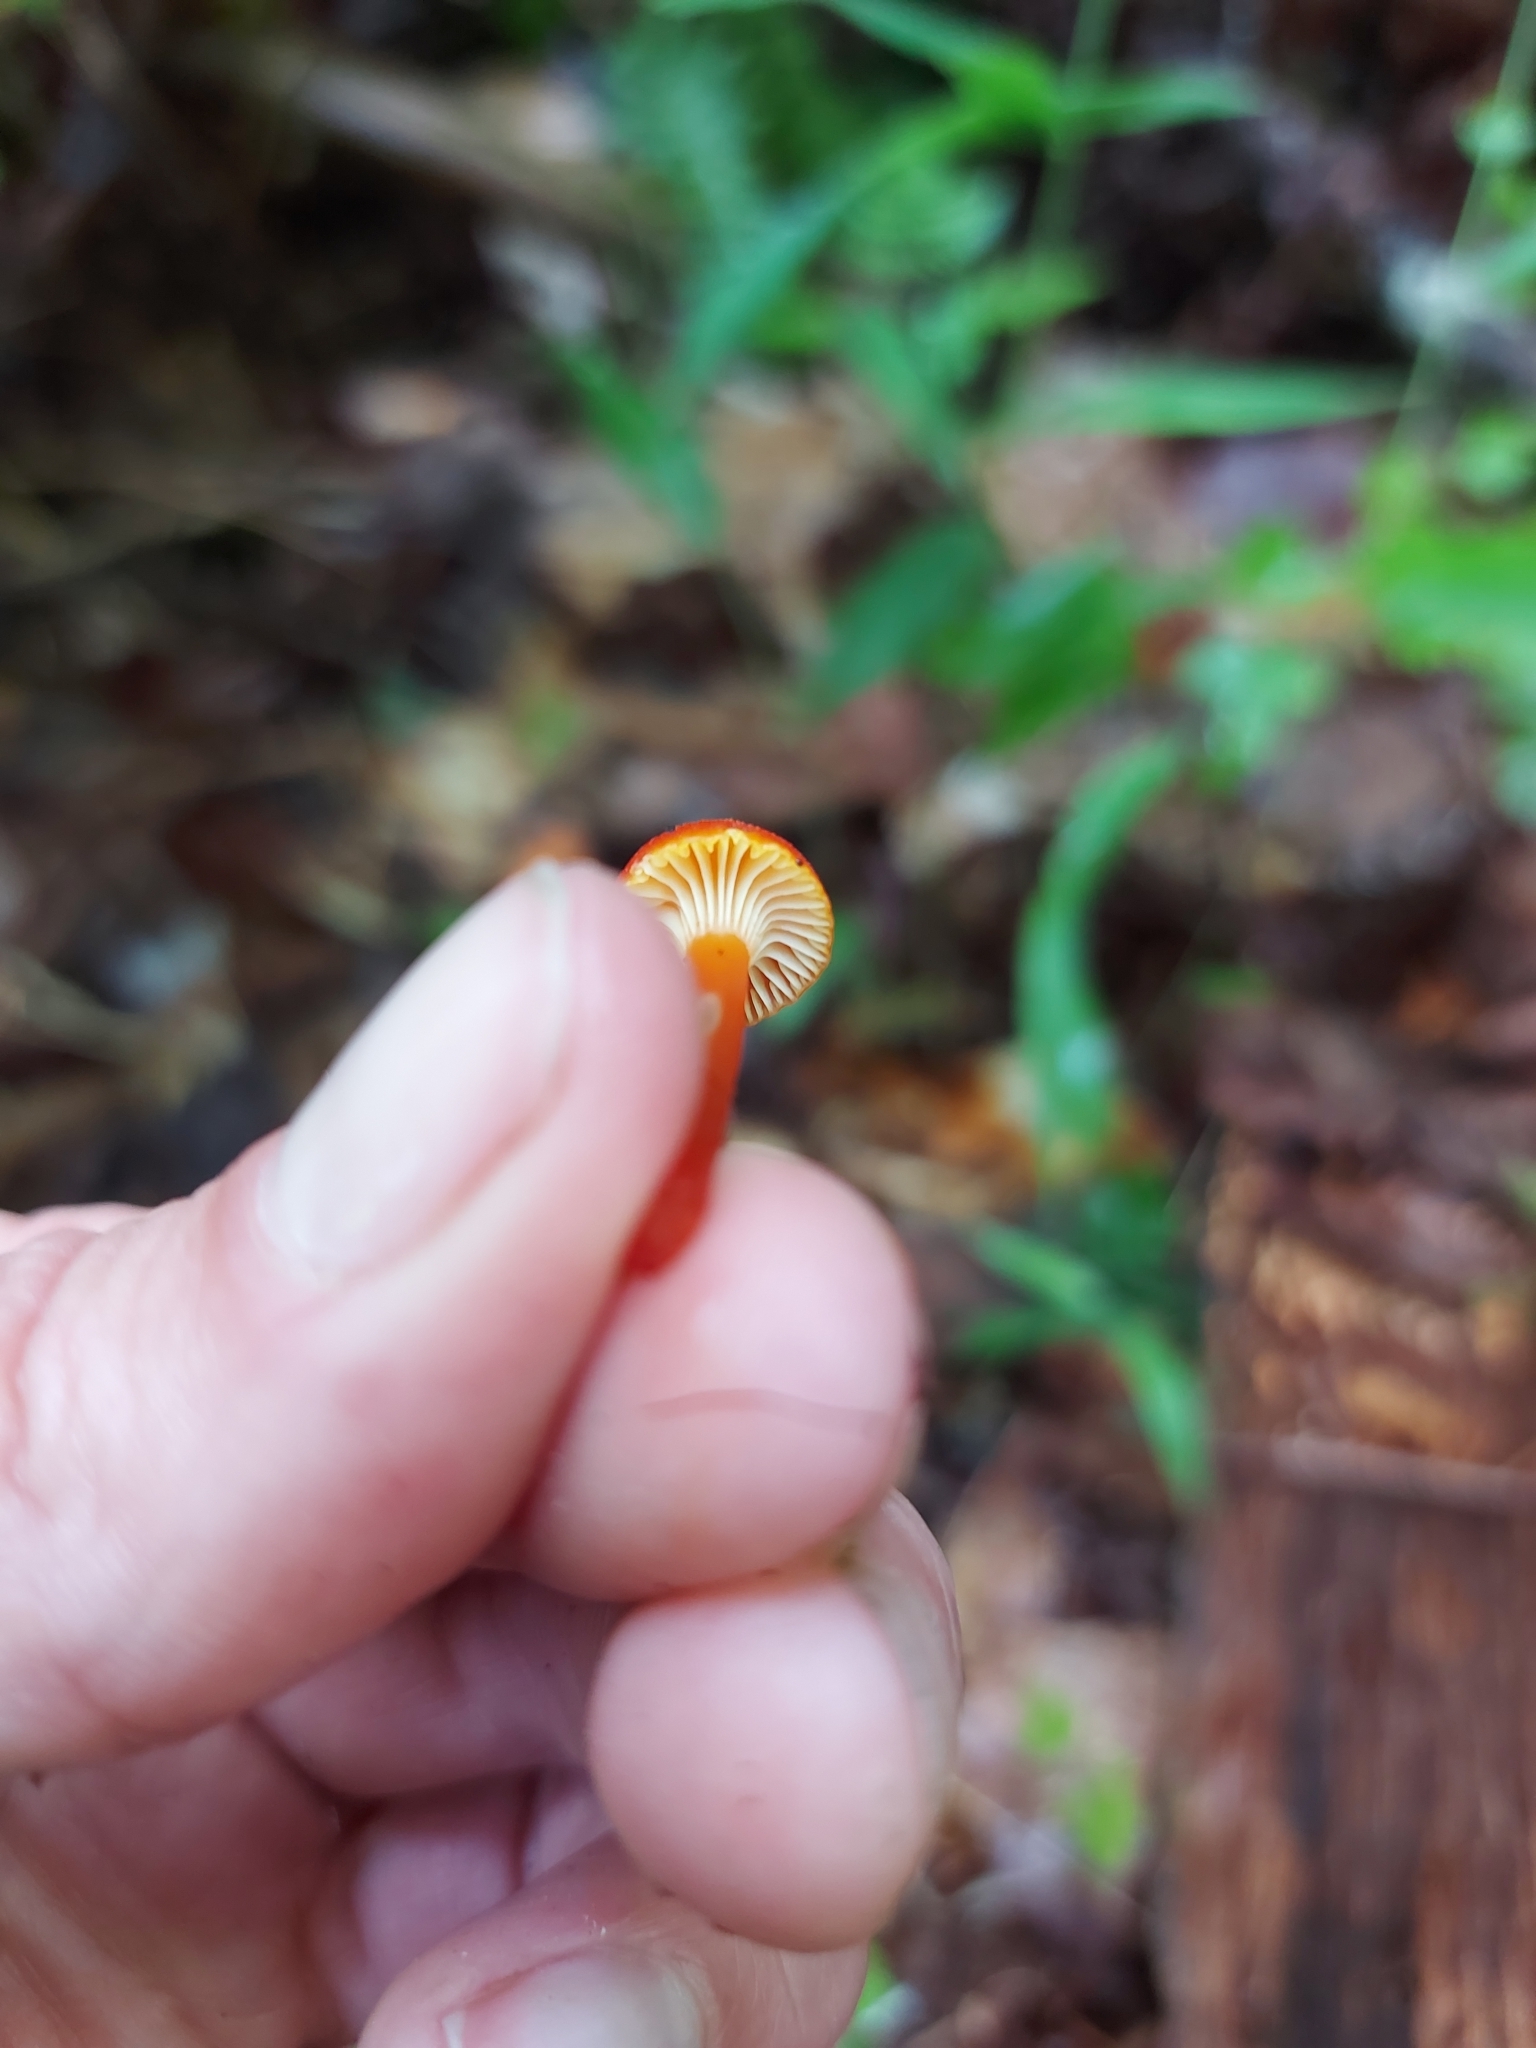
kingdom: Fungi
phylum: Basidiomycota
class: Agaricomycetes
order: Agaricales
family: Hygrophoraceae
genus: Hygrocybe
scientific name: Hygrocybe cantharellus
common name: Goblet waxcap
